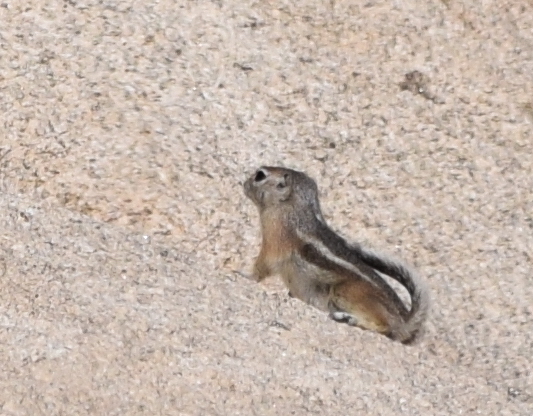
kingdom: Animalia
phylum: Chordata
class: Mammalia
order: Rodentia
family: Sciuridae
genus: Ammospermophilus
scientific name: Ammospermophilus leucurus
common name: White-tailed antelope squirrel
